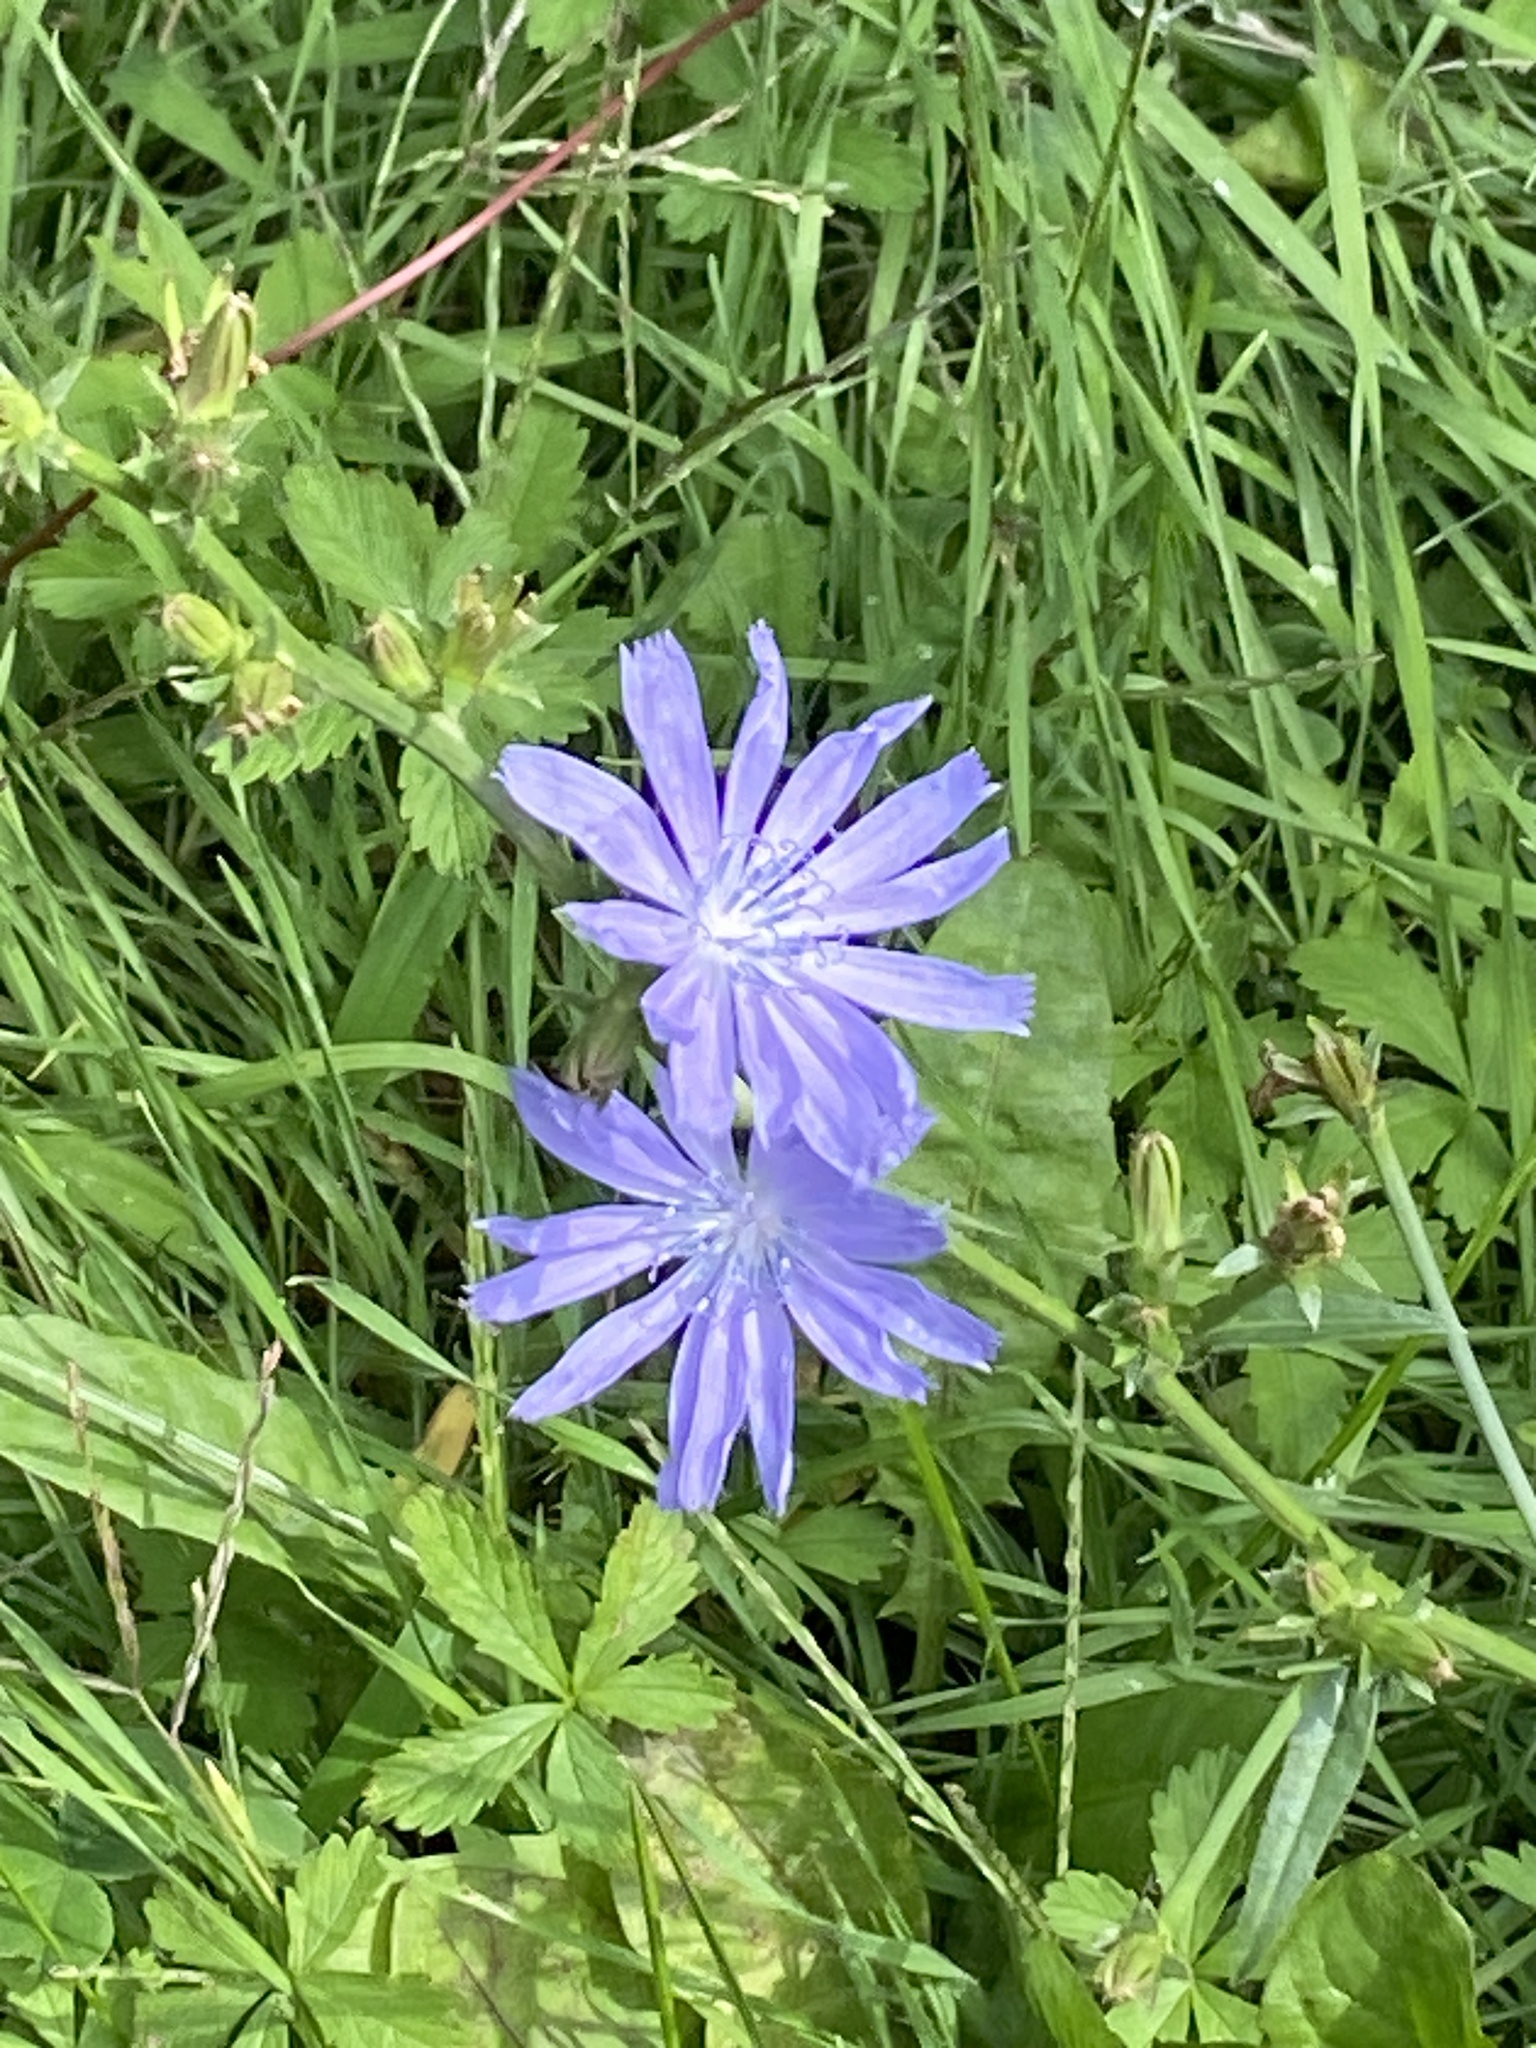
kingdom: Plantae
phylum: Tracheophyta
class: Magnoliopsida
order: Asterales
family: Asteraceae
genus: Cichorium
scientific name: Cichorium intybus
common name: Chicory
